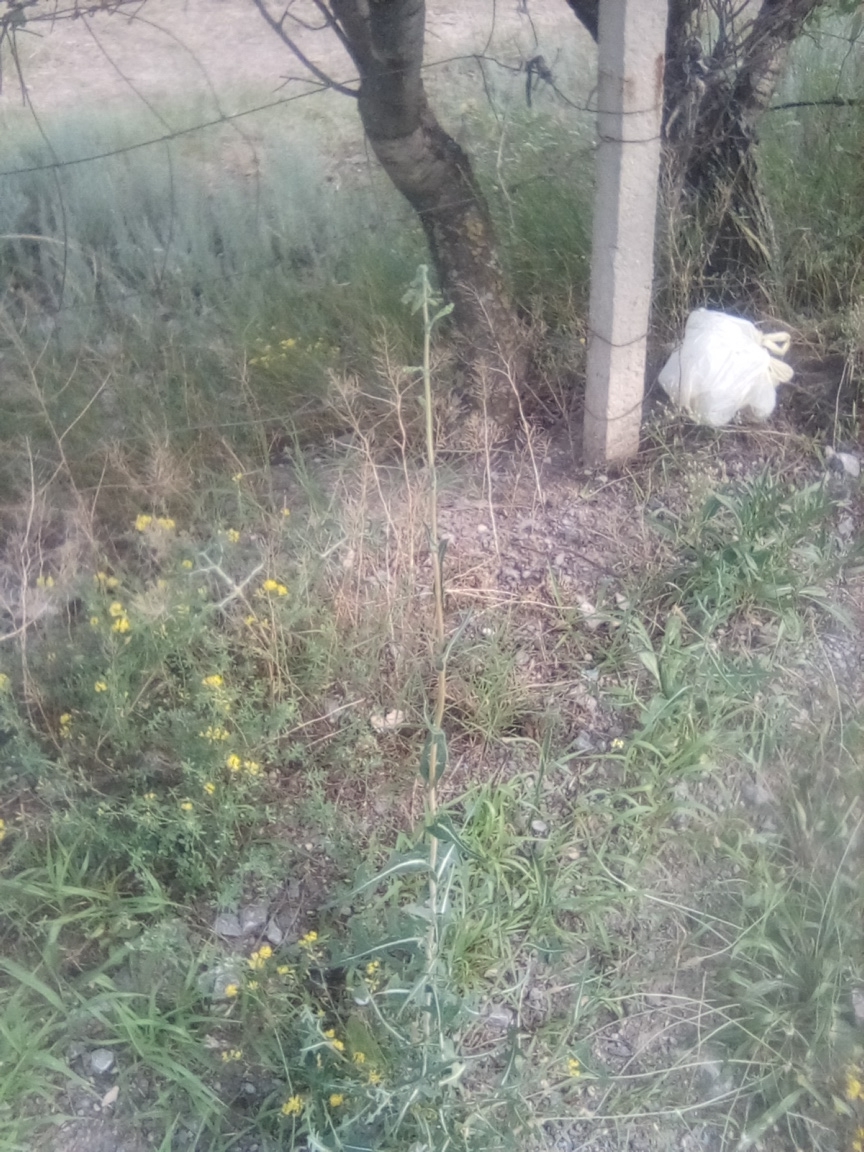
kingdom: Plantae
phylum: Tracheophyta
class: Magnoliopsida
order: Asterales
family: Asteraceae
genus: Lactuca
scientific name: Lactuca serriola
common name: Prickly lettuce
